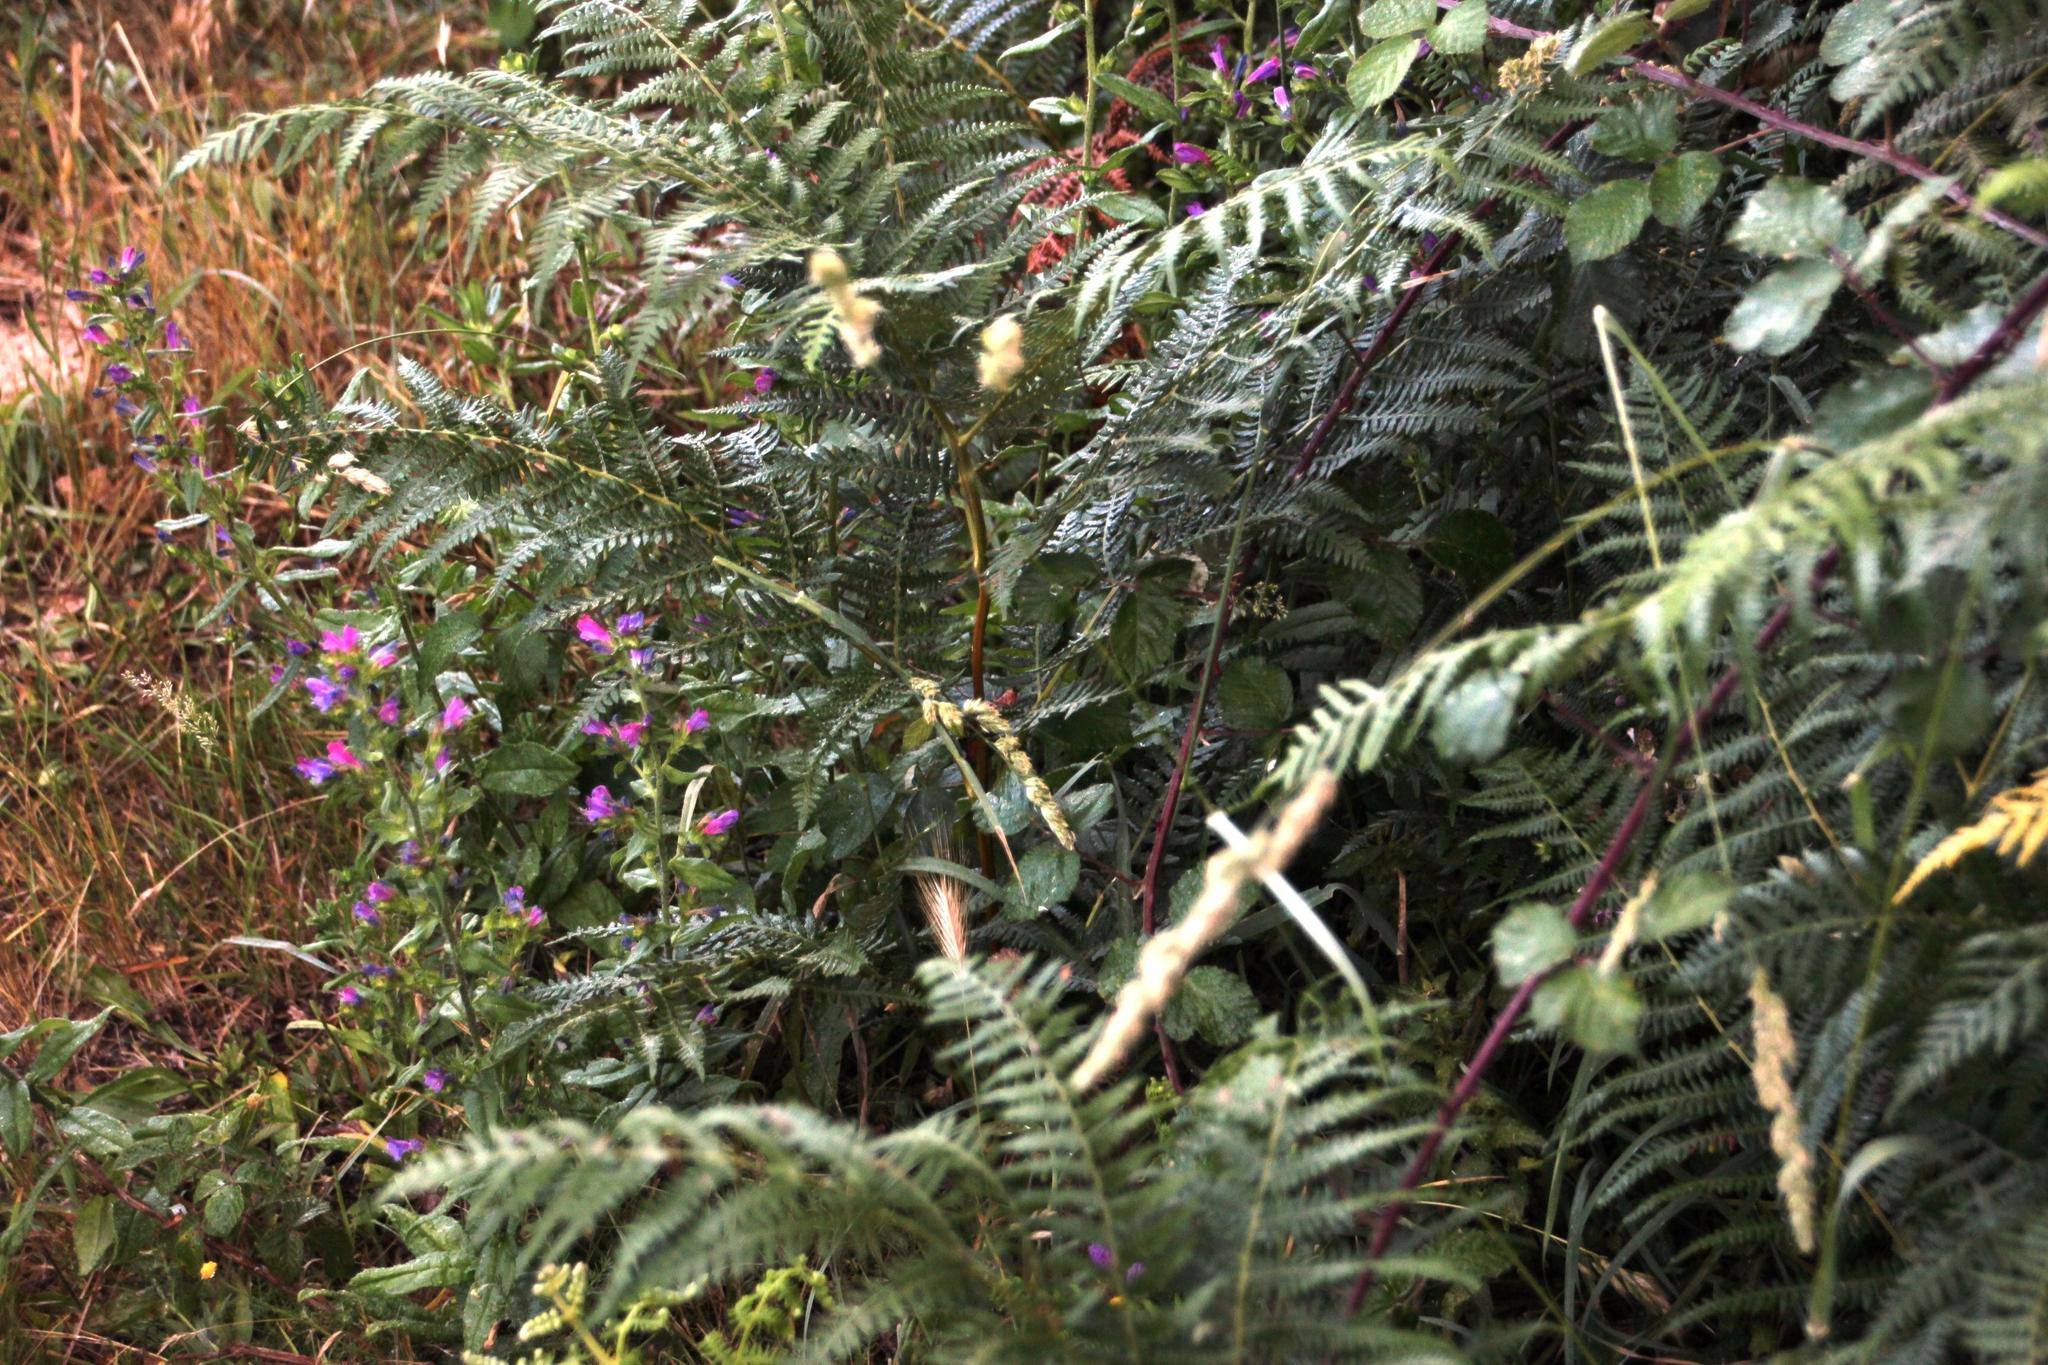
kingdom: Plantae
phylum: Tracheophyta
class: Magnoliopsida
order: Boraginales
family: Boraginaceae
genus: Echium
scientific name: Echium rosulatum
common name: Lax viper's-bugloss
